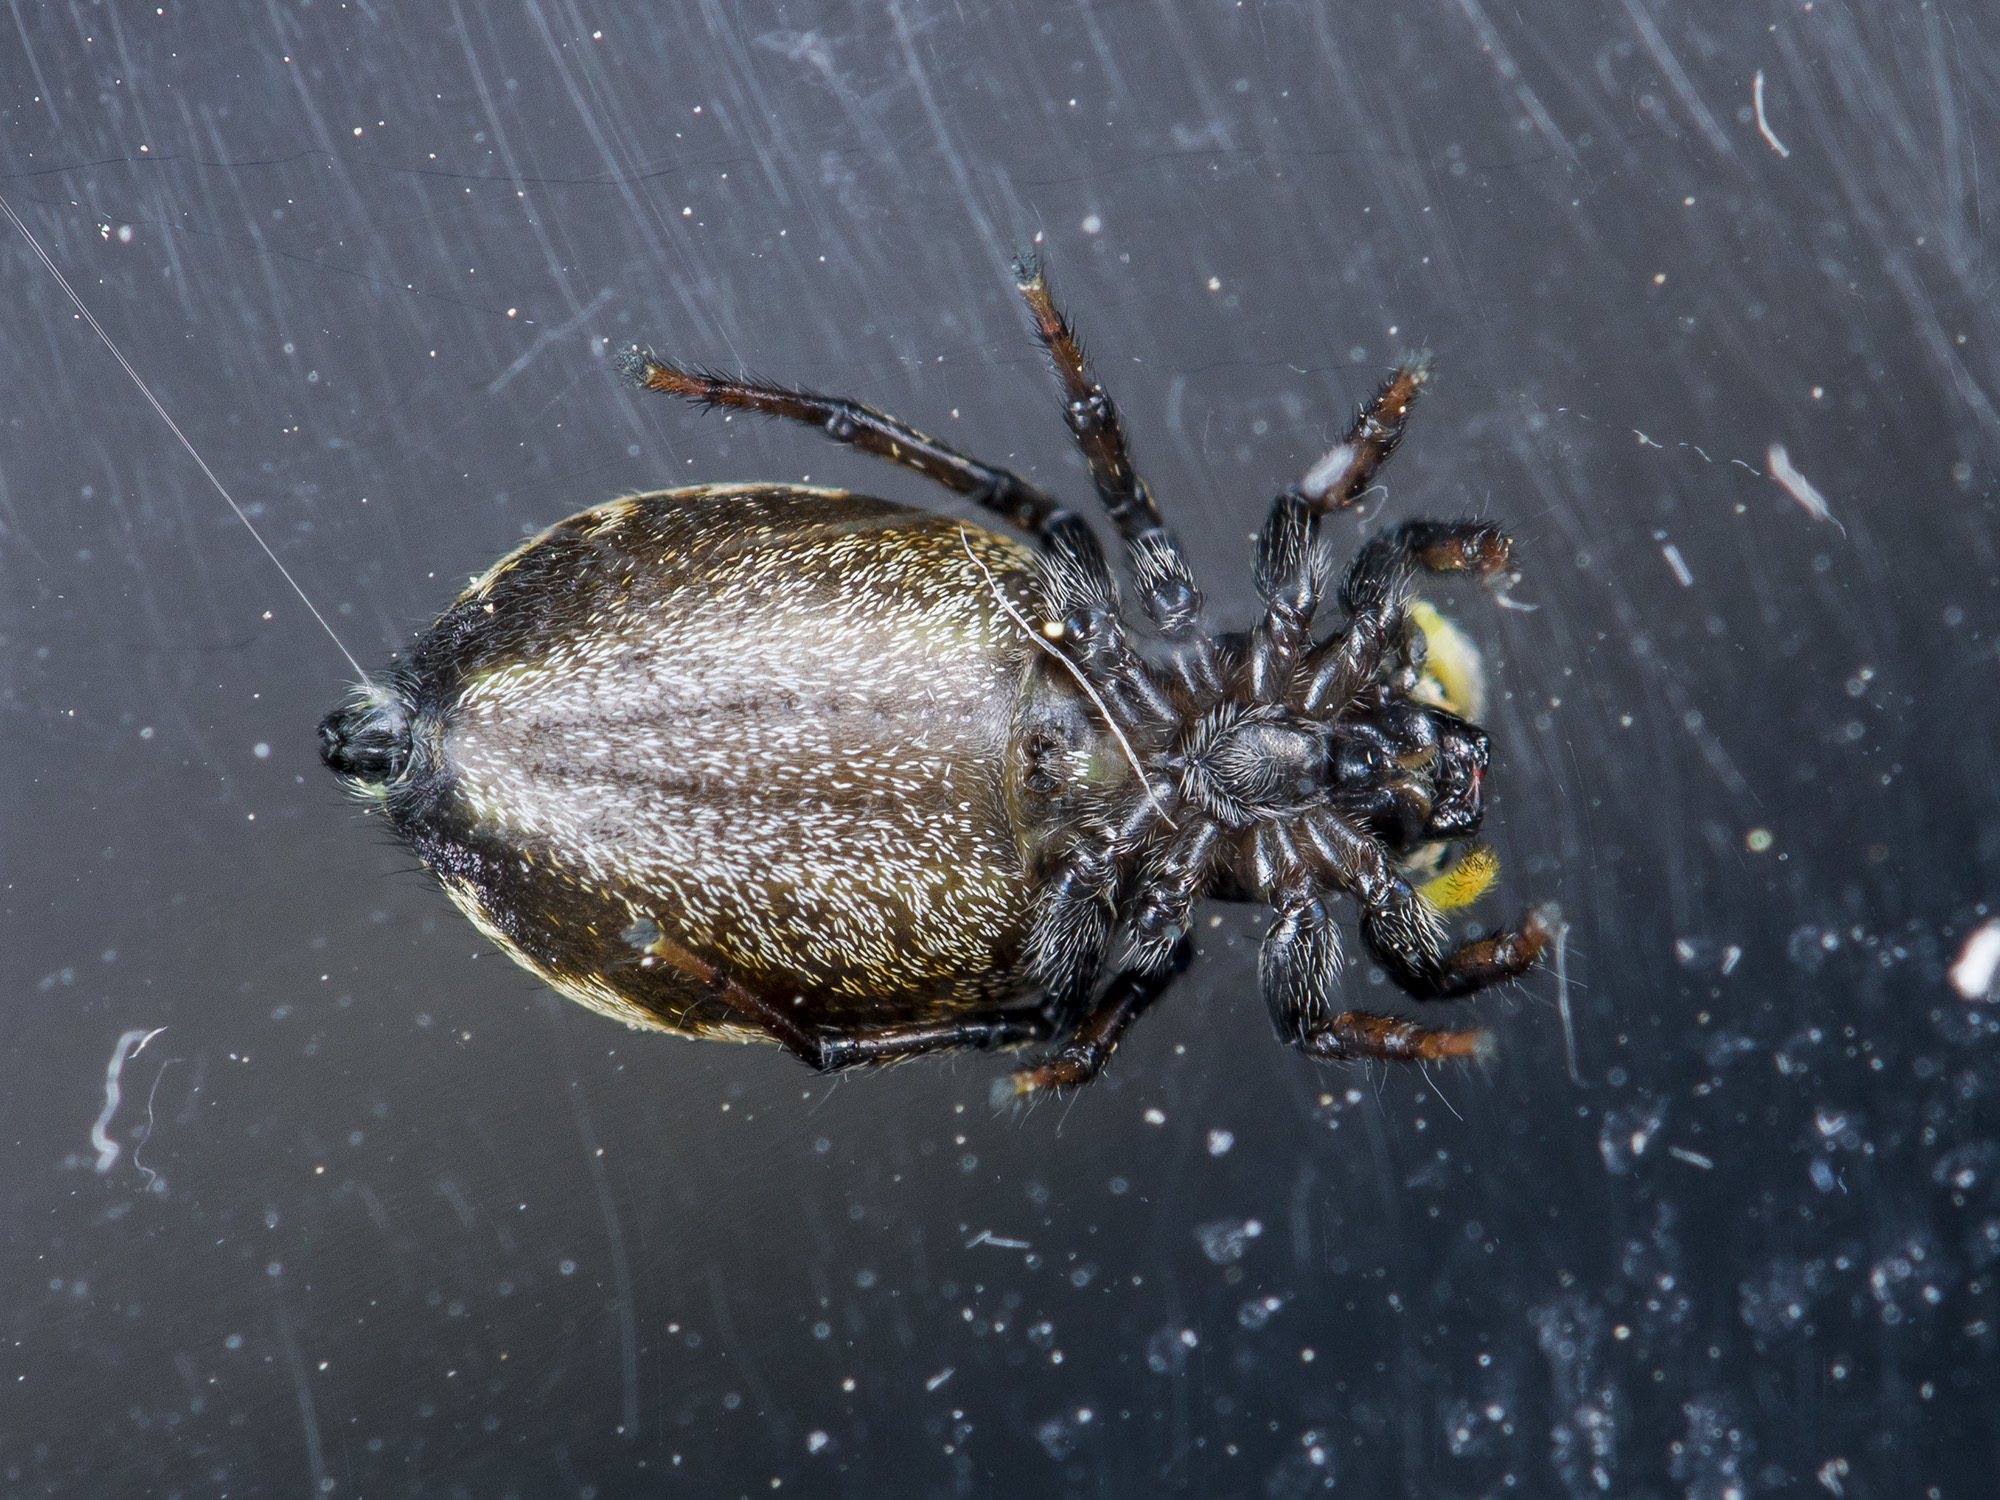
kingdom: Animalia
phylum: Arthropoda
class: Arachnida
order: Araneae
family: Salticidae
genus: Heliophanus
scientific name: Heliophanus potanini
